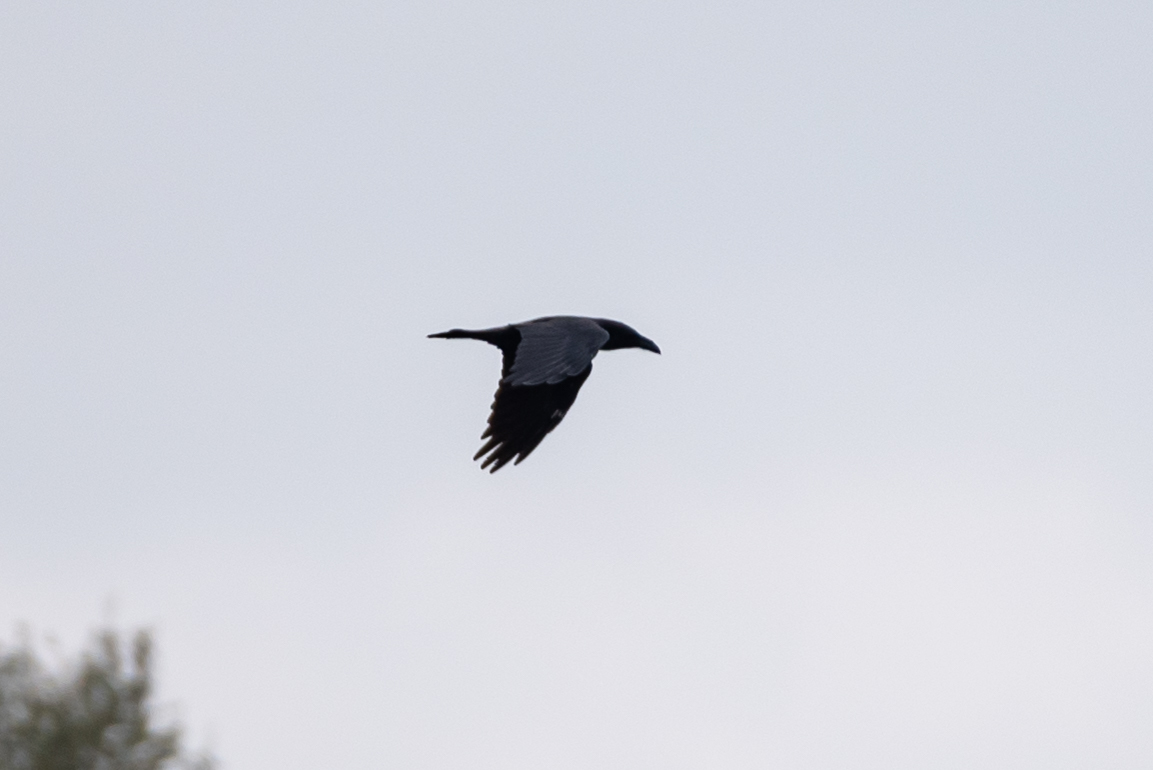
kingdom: Animalia
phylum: Chordata
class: Aves
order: Passeriformes
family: Corvidae
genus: Corvus
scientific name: Corvus corax
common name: Common raven
